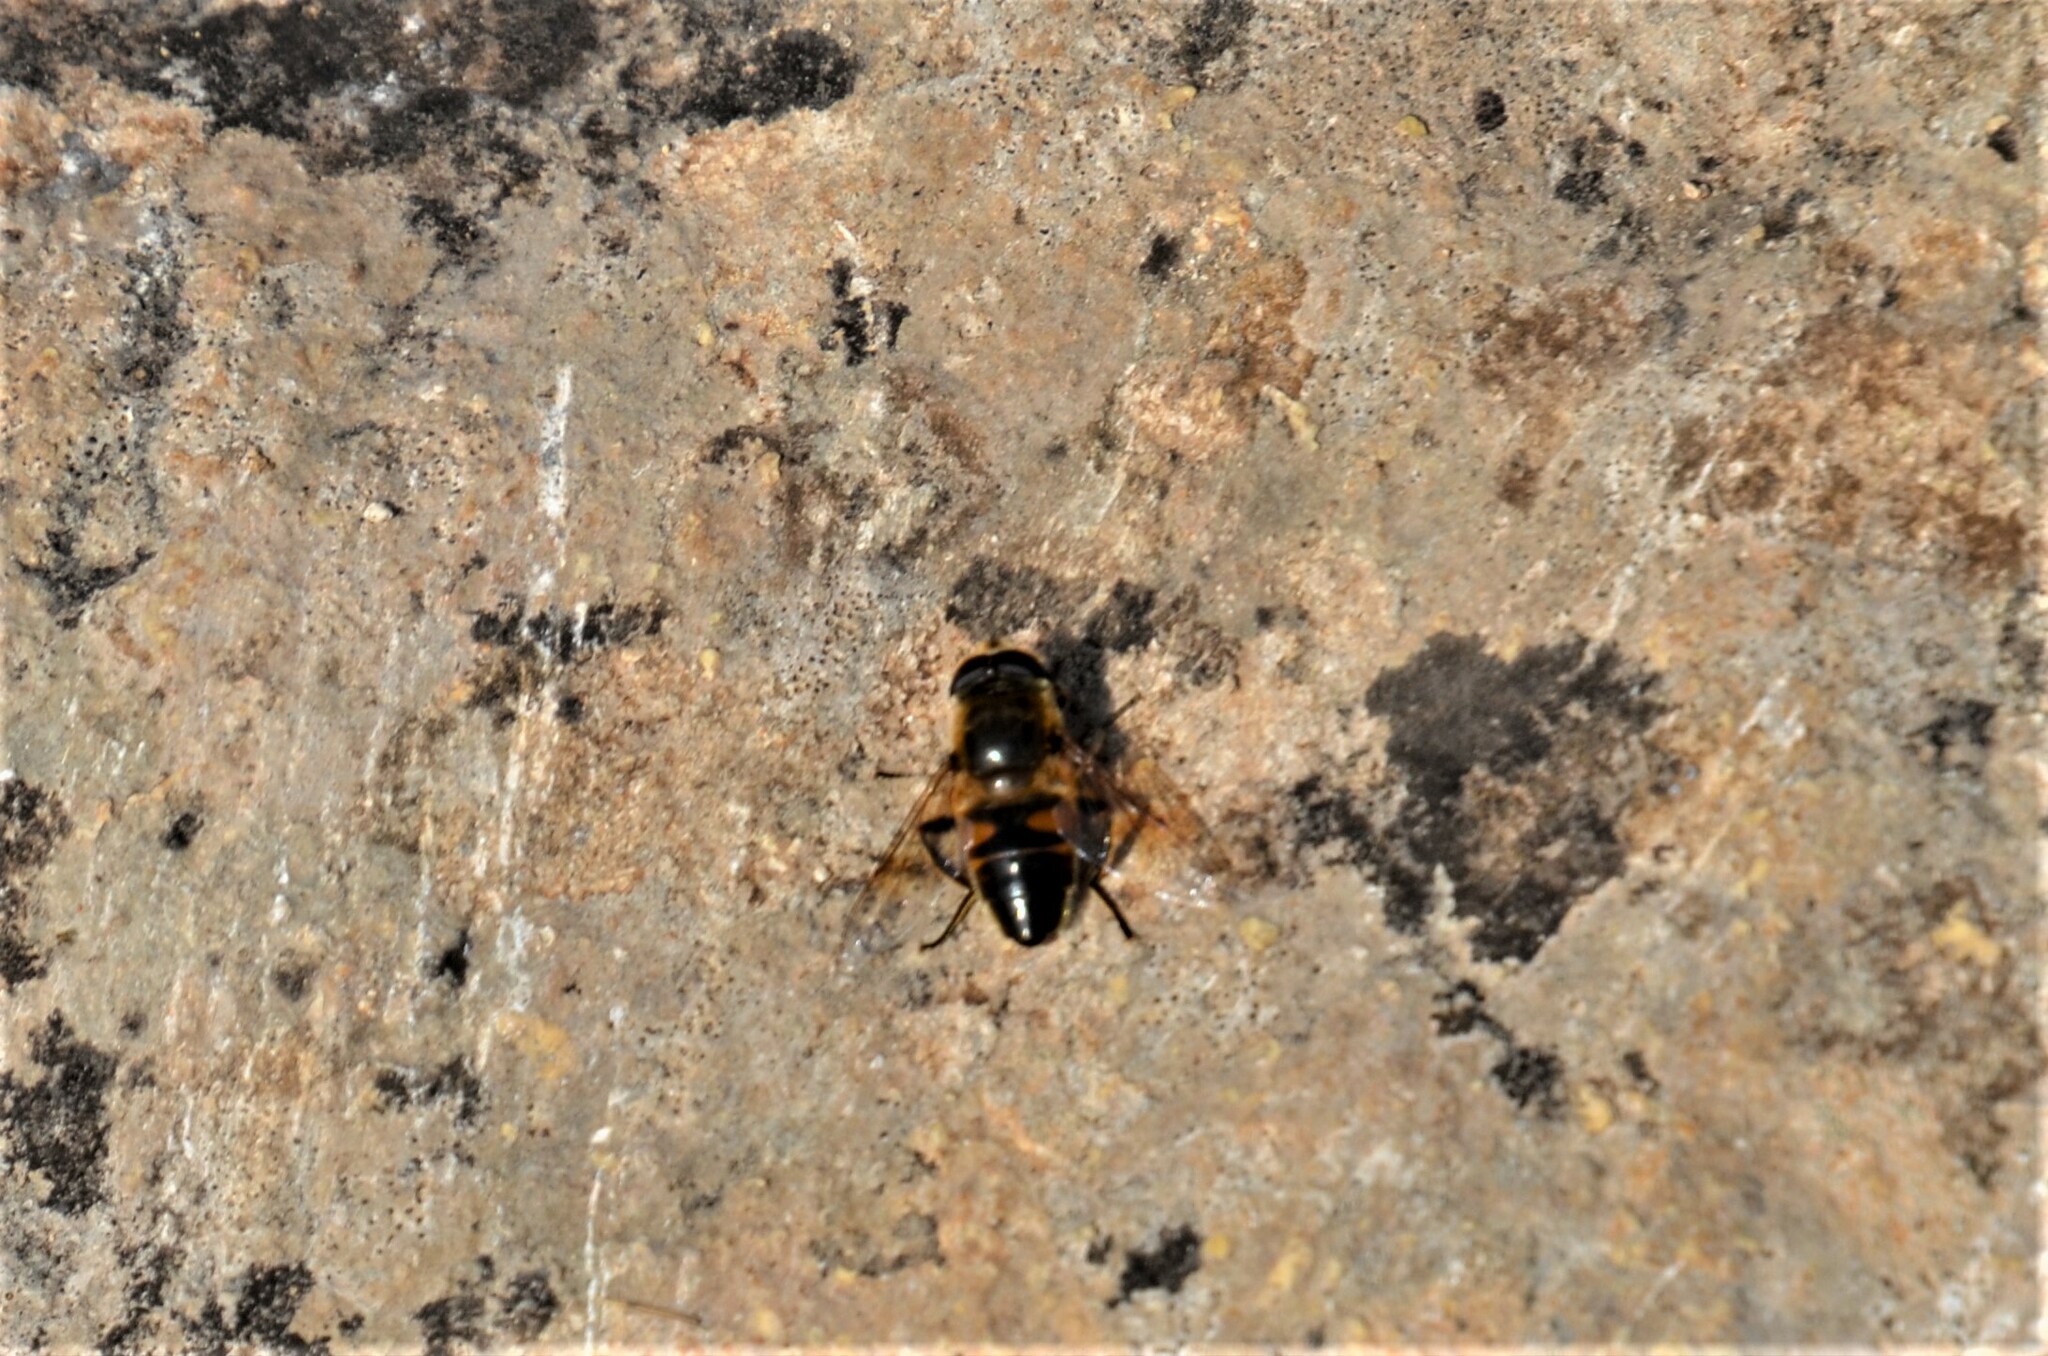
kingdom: Animalia
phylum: Arthropoda
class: Insecta
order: Diptera
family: Syrphidae
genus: Eristalis
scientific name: Eristalis tenax
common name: Drone fly
